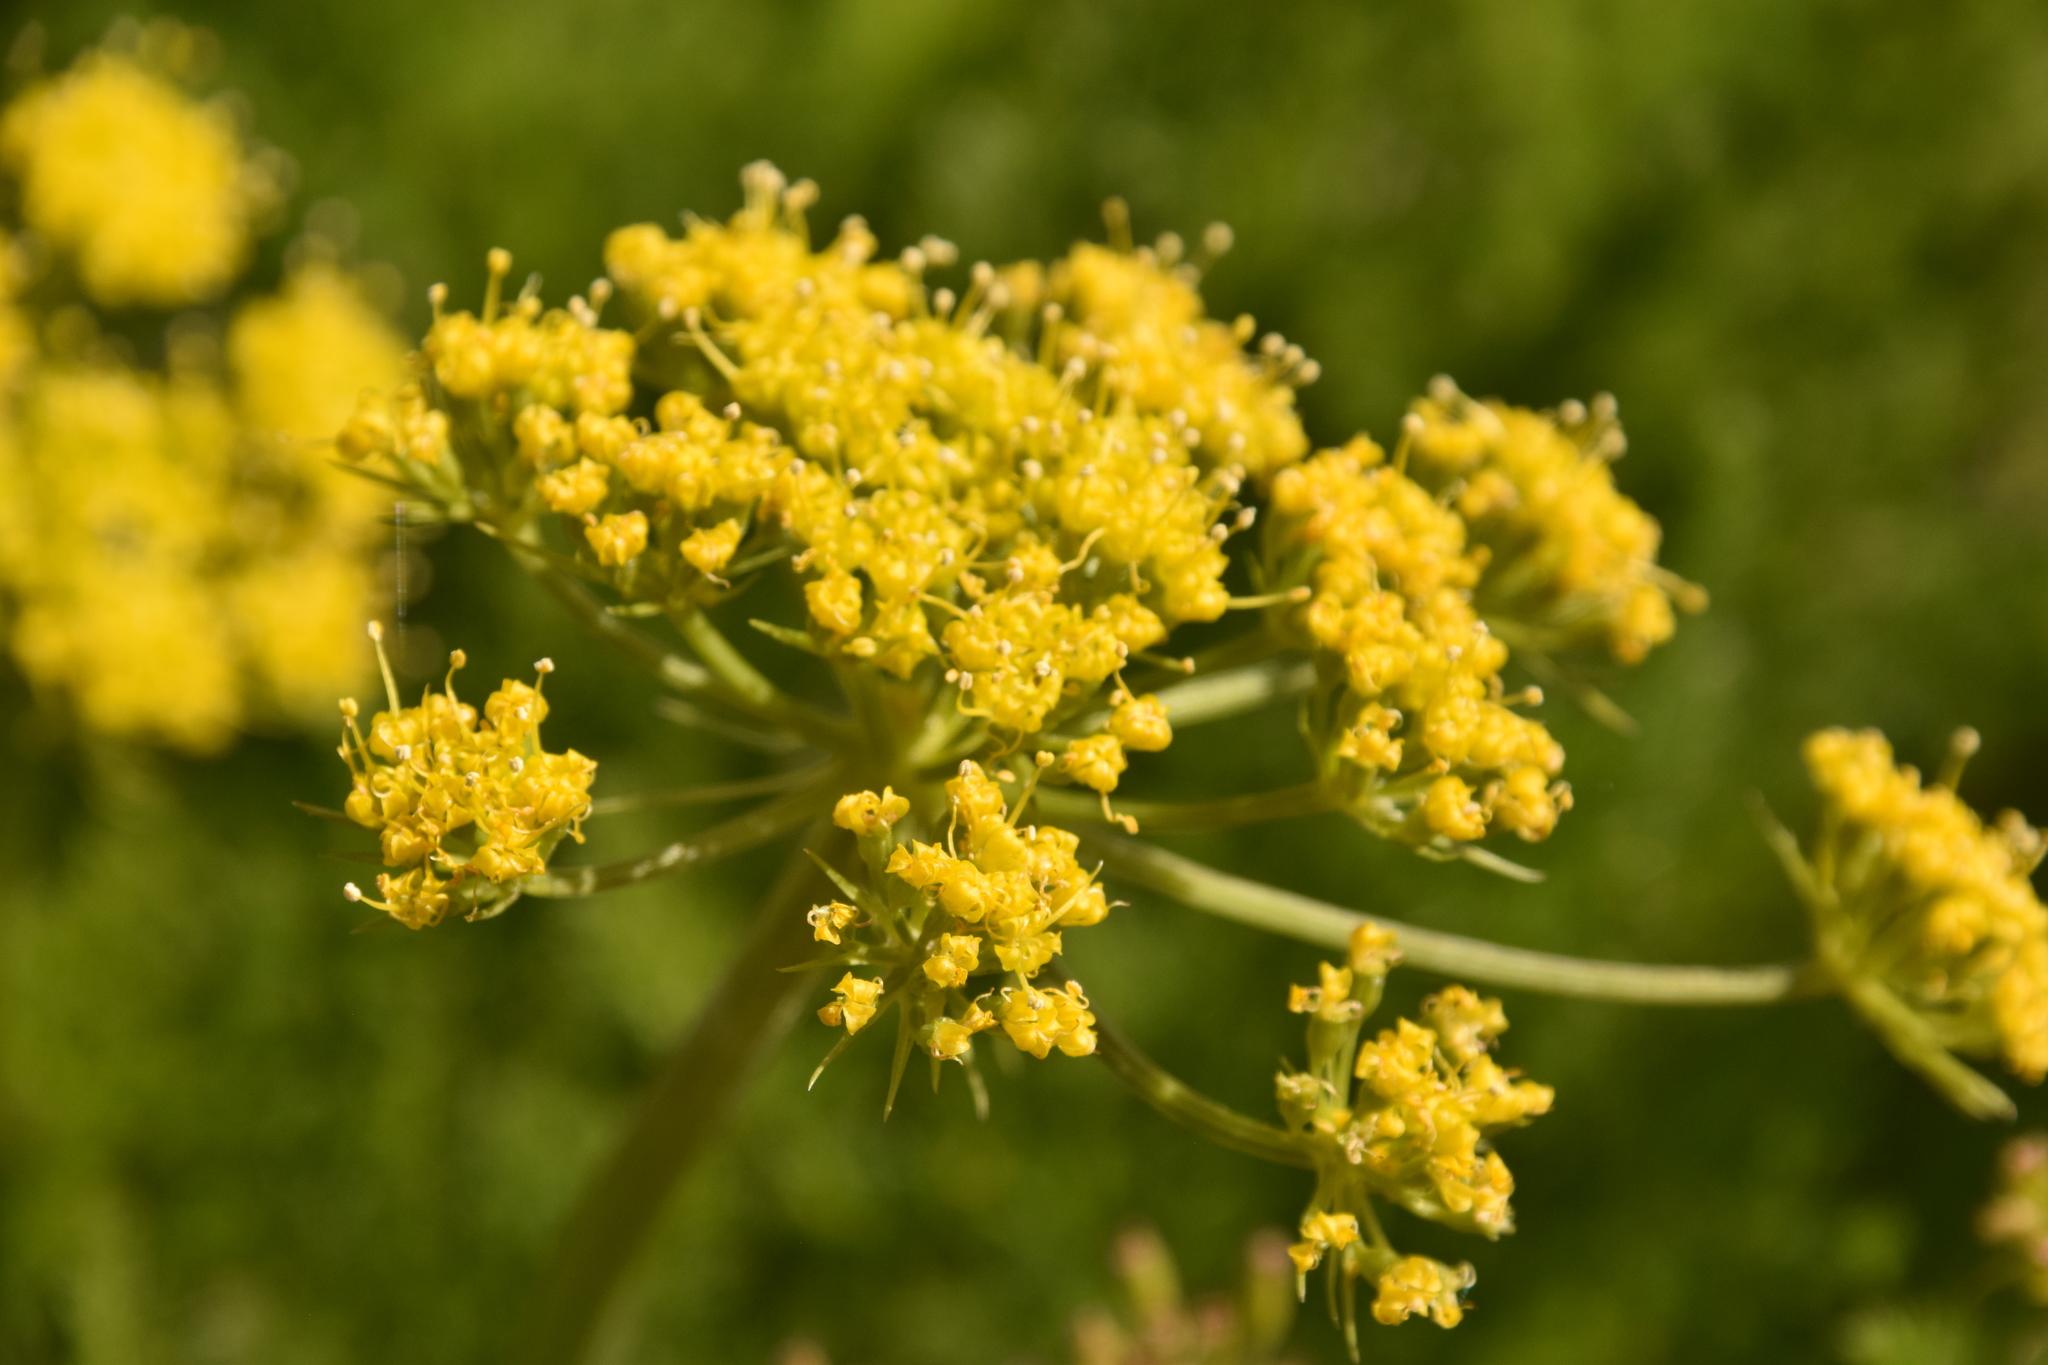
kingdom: Plantae
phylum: Tracheophyta
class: Magnoliopsida
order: Apiales
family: Apiaceae
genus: Lomatium
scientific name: Lomatium grayi
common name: Milfoil lomatium
